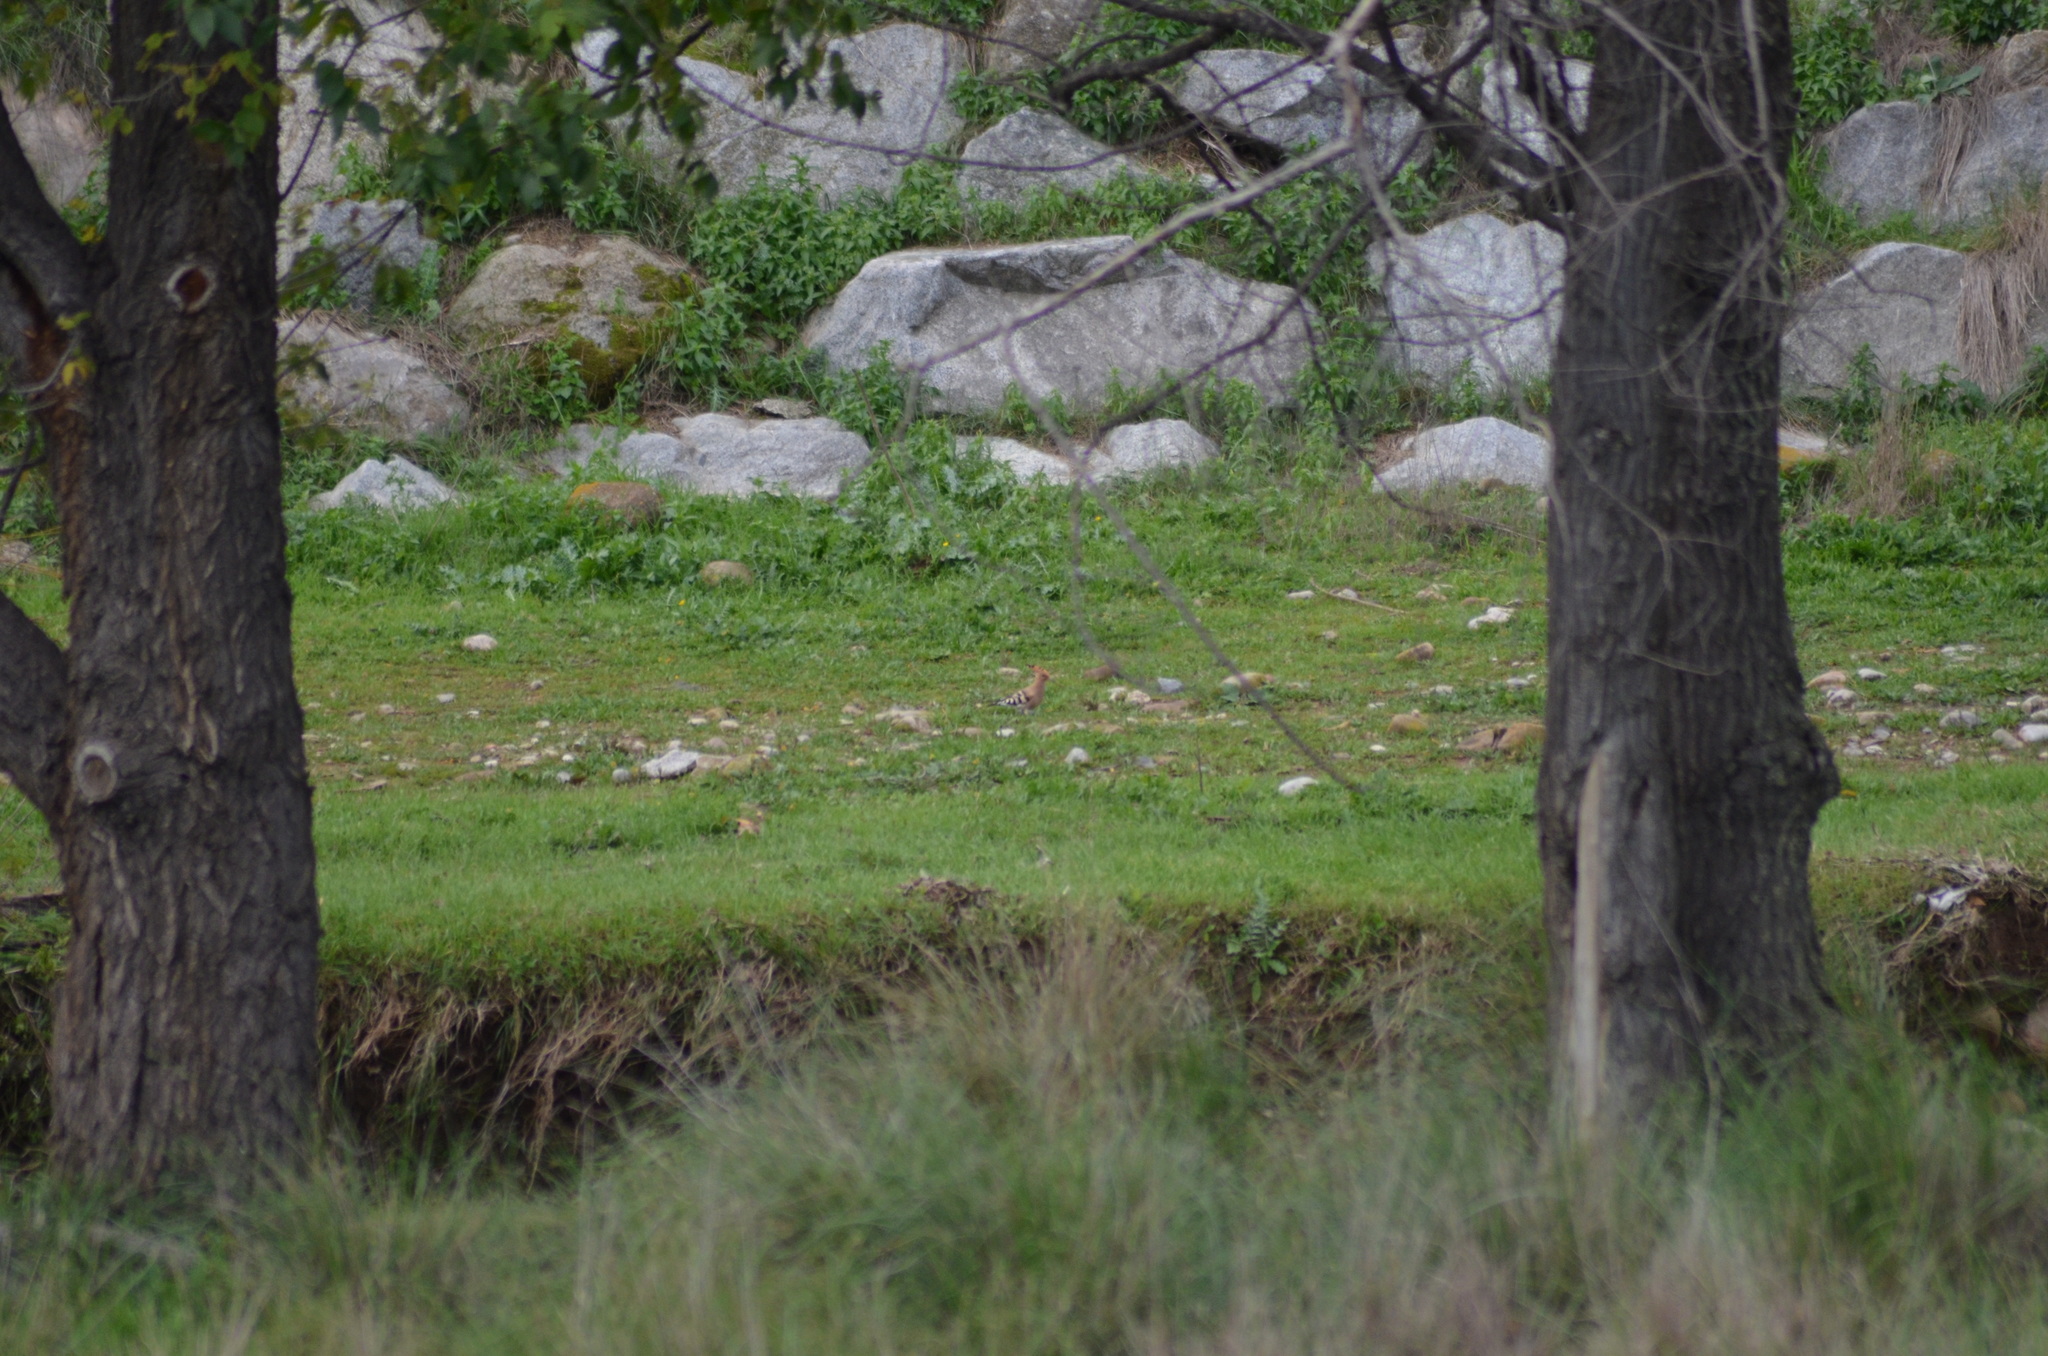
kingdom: Animalia
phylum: Chordata
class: Aves
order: Bucerotiformes
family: Upupidae
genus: Upupa
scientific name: Upupa epops
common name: Eurasian hoopoe
